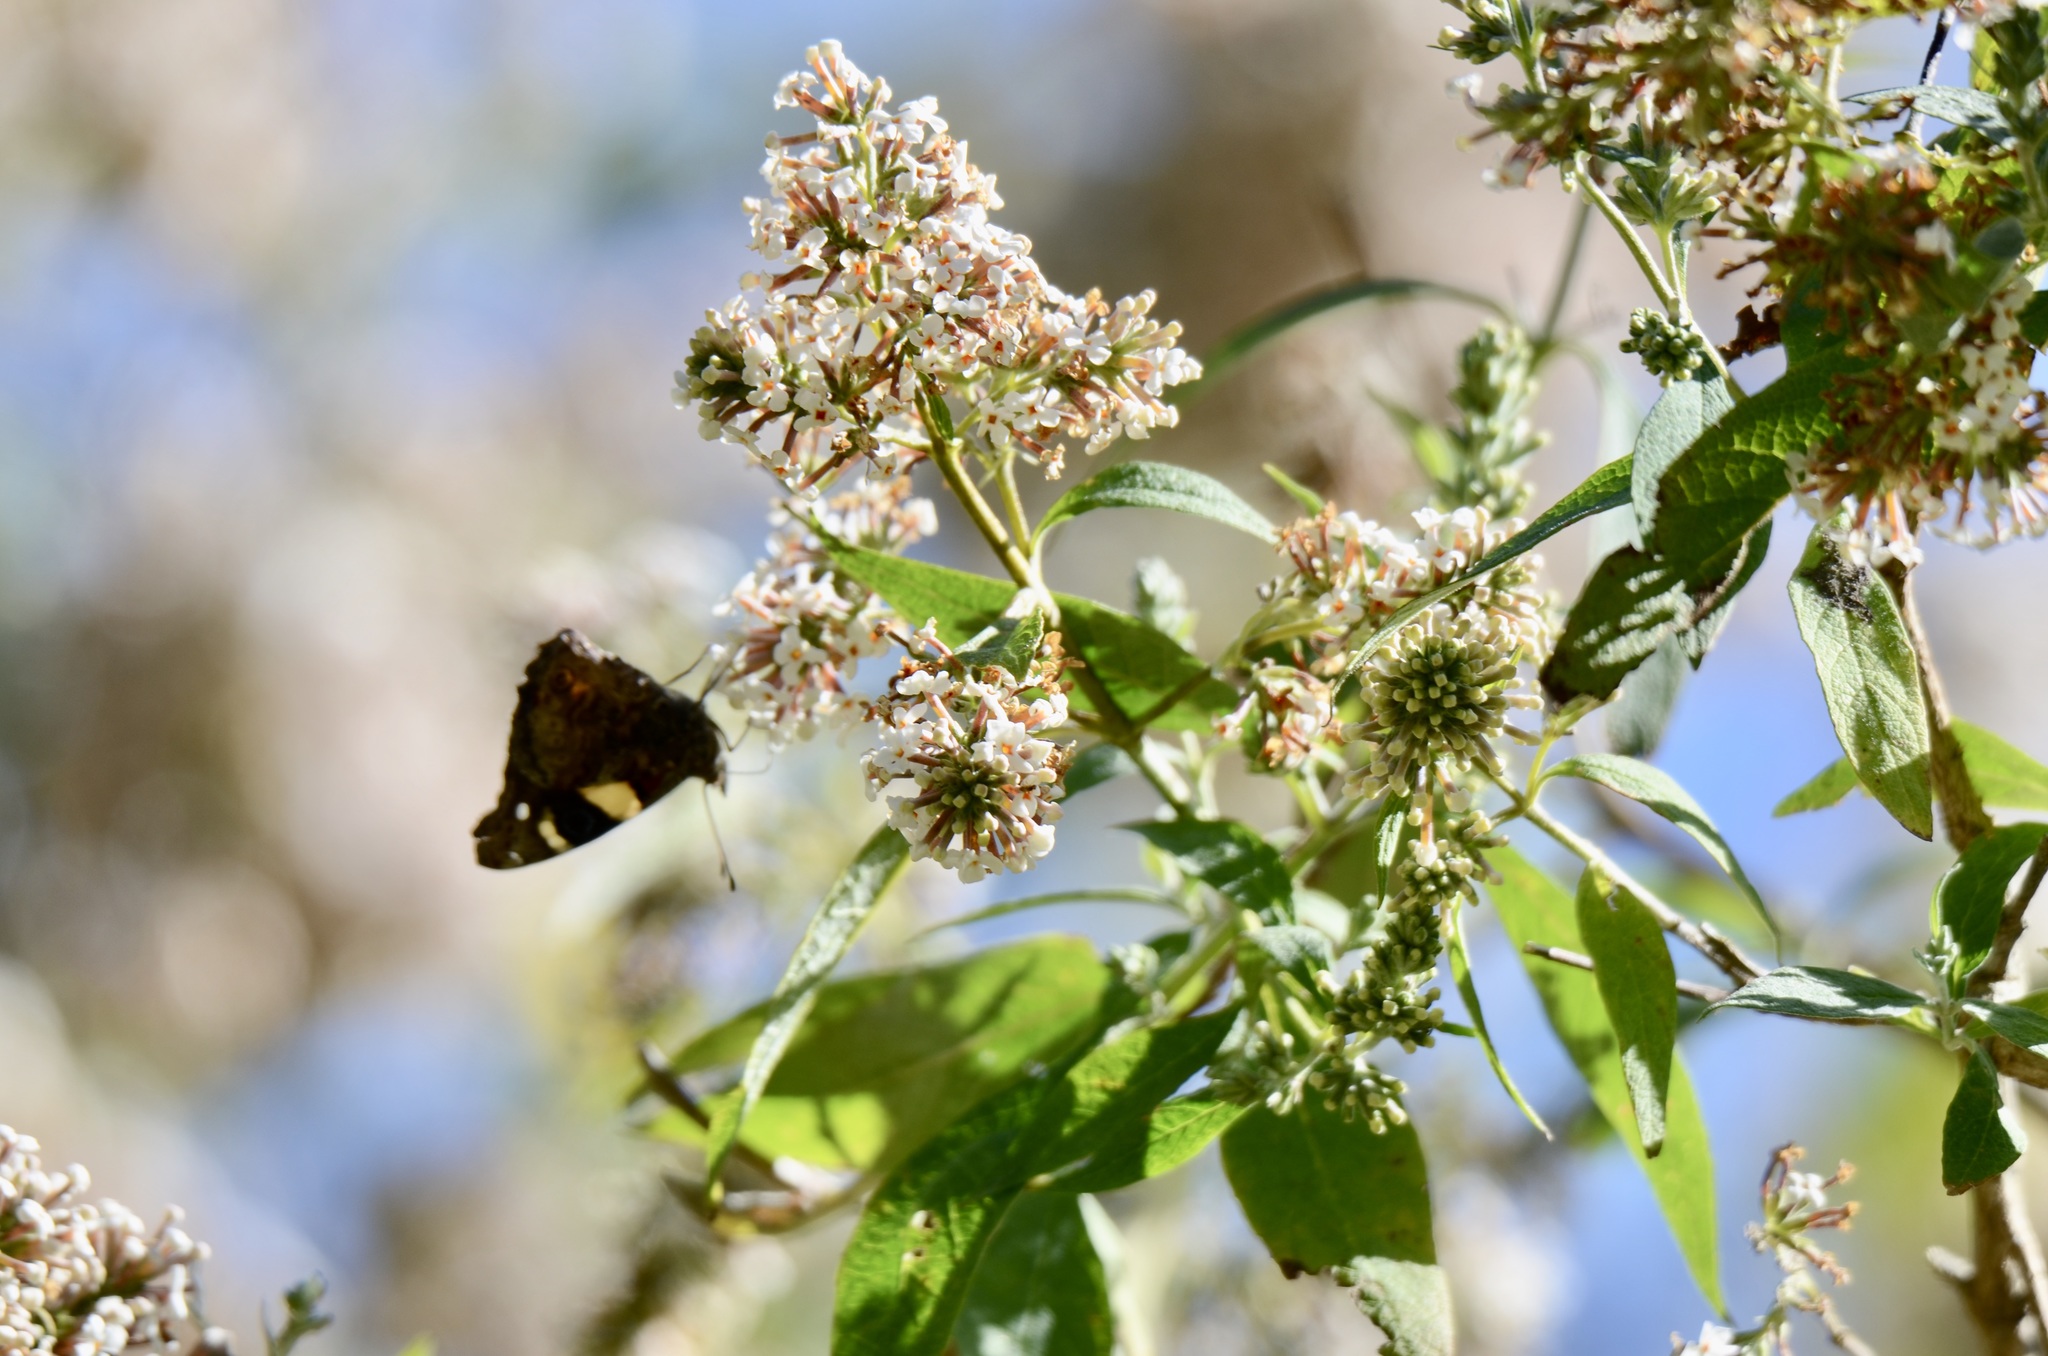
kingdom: Animalia
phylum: Arthropoda
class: Insecta
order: Lepidoptera
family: Nymphalidae
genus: Vanessa
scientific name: Vanessa itea
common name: Yellow admiral
